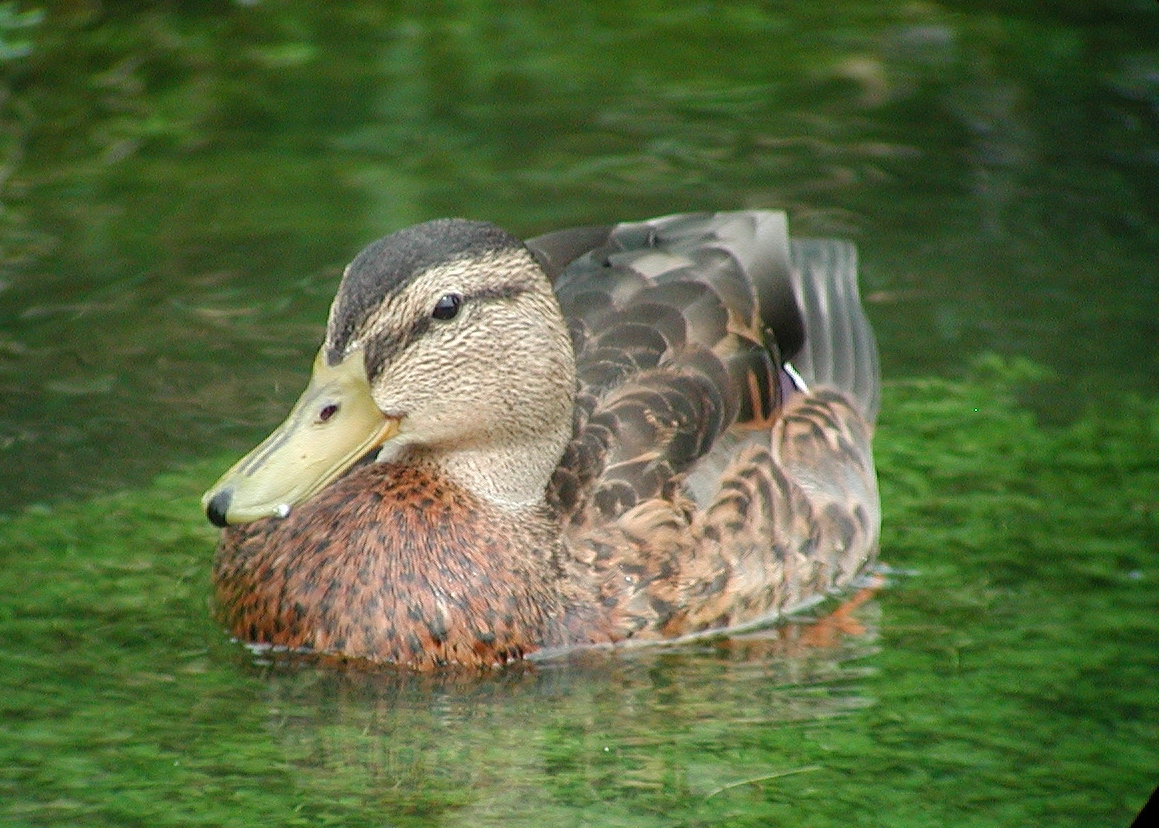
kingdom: Animalia
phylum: Chordata
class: Aves
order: Anseriformes
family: Anatidae
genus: Anas
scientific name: Anas platyrhynchos
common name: Mallard
